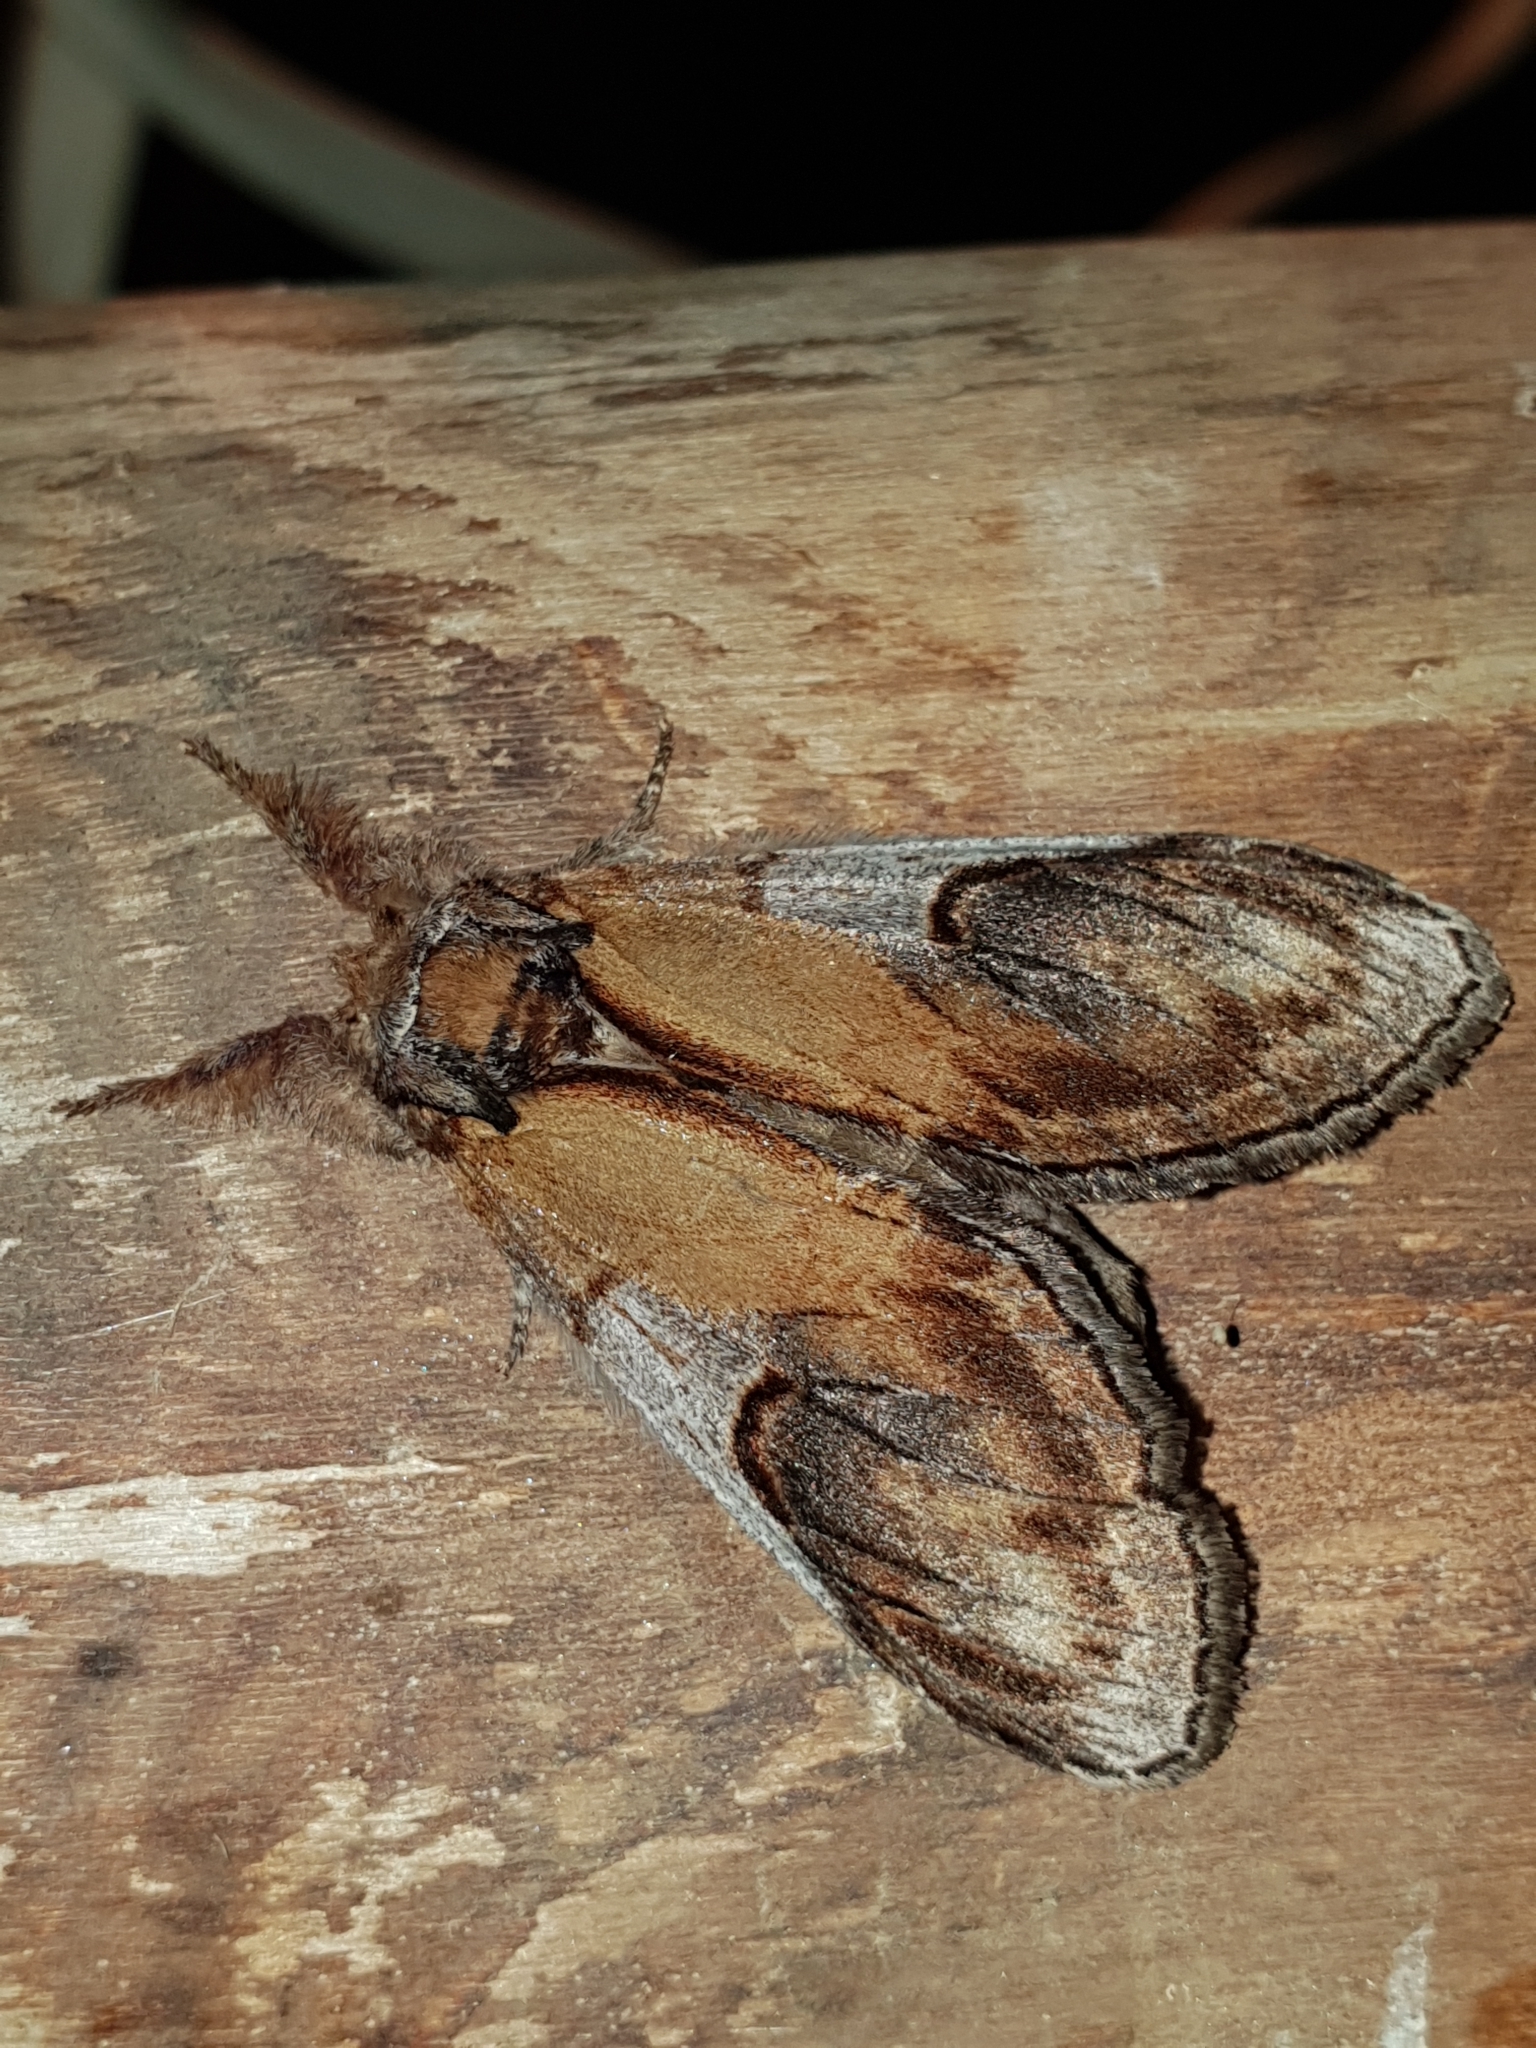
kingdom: Animalia
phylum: Arthropoda
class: Insecta
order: Lepidoptera
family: Notodontidae
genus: Notodonta
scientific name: Notodonta ziczac
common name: Pebble prominent
